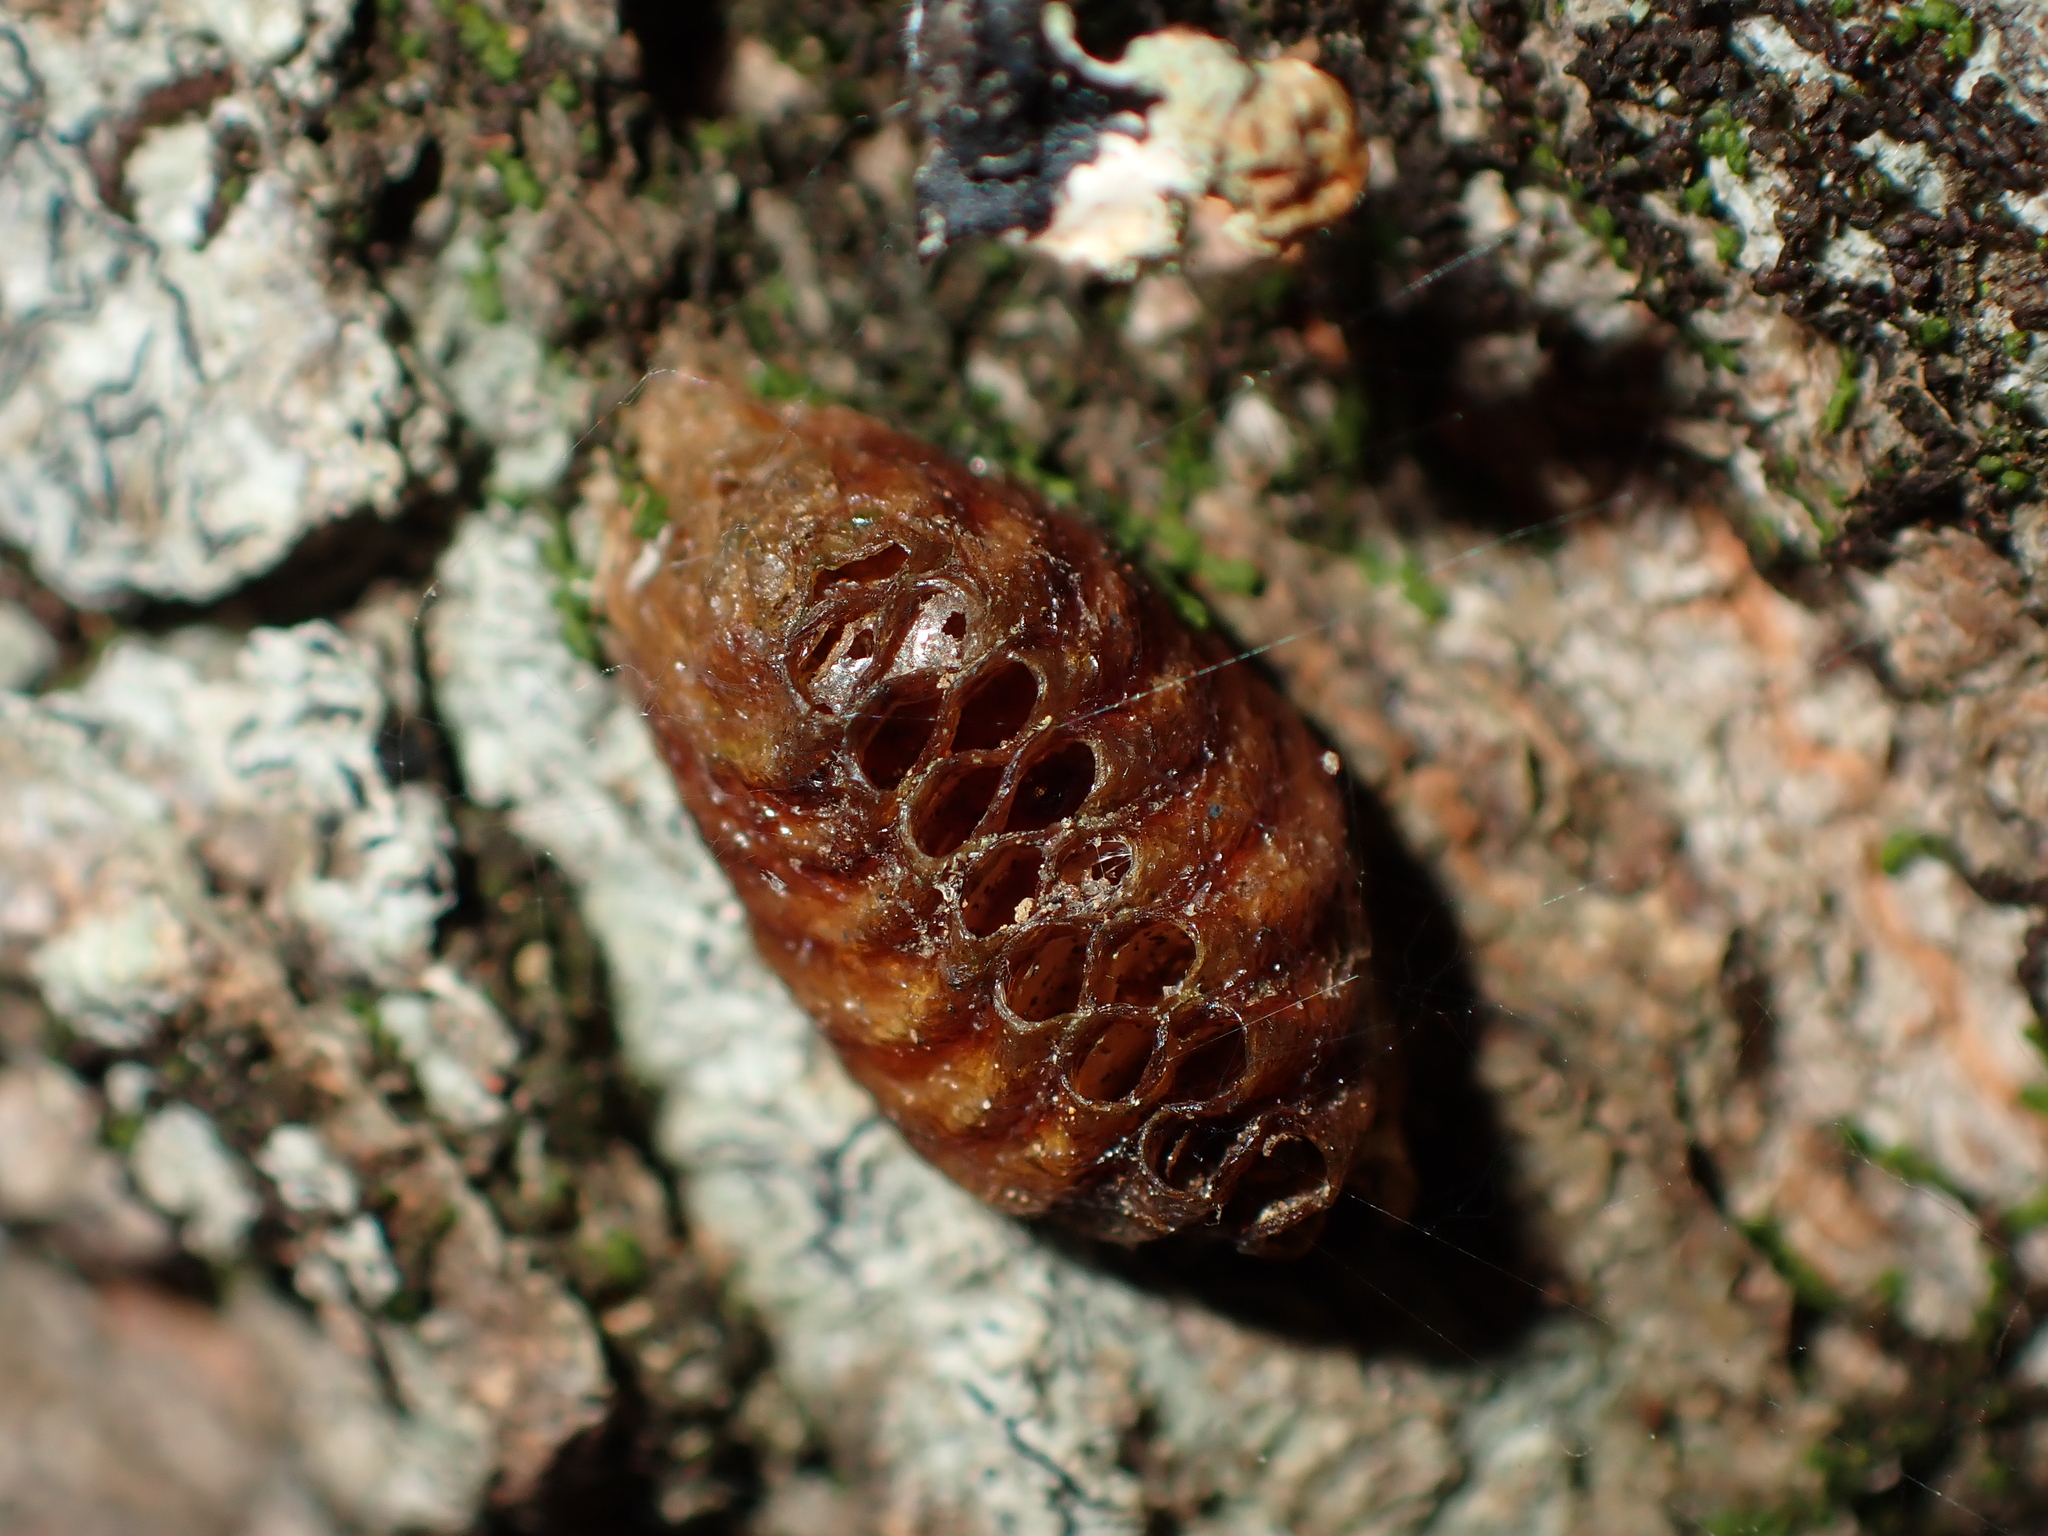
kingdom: Animalia
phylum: Arthropoda
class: Insecta
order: Mantodea
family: Mantidae
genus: Orthodera
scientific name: Orthodera novaezealandiae
